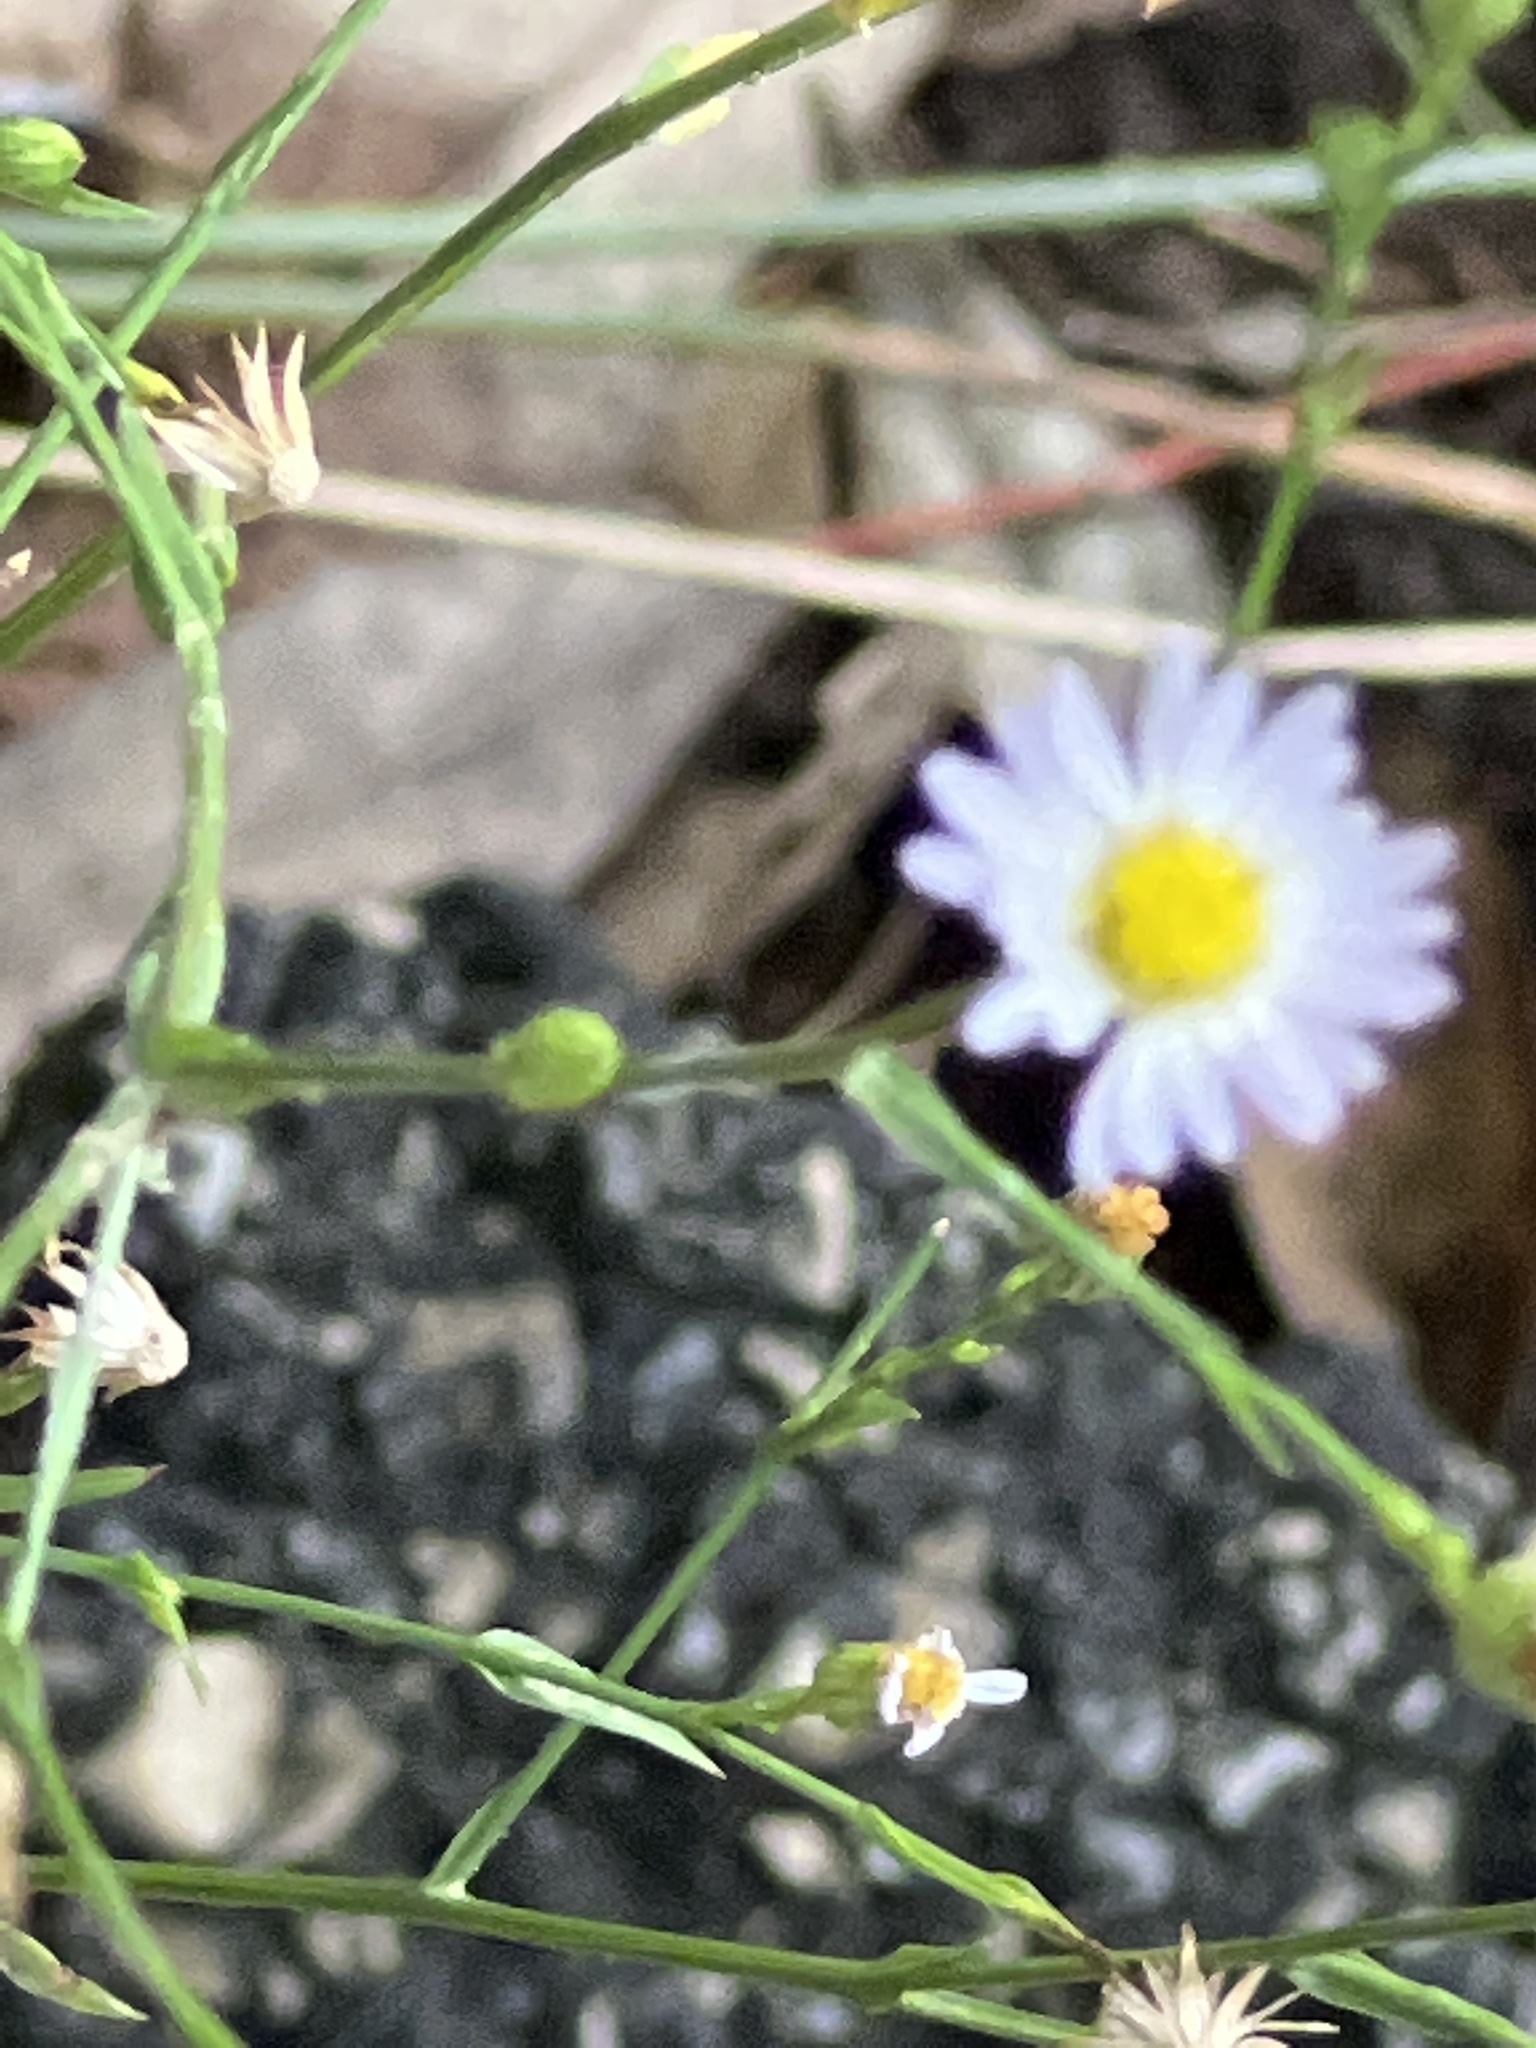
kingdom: Plantae
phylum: Tracheophyta
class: Magnoliopsida
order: Asterales
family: Asteraceae
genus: Symphyotrichum
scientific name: Symphyotrichum divaricatum
